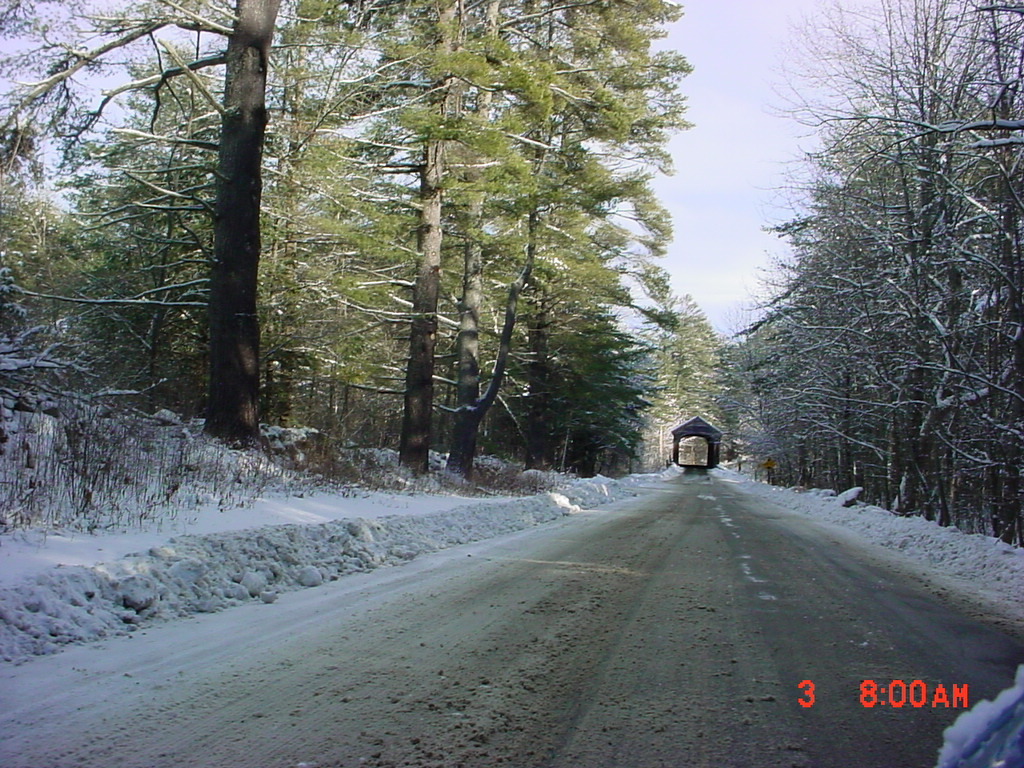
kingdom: Plantae
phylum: Tracheophyta
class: Pinopsida
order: Pinales
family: Pinaceae
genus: Pinus
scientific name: Pinus strobus
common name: Weymouth pine
